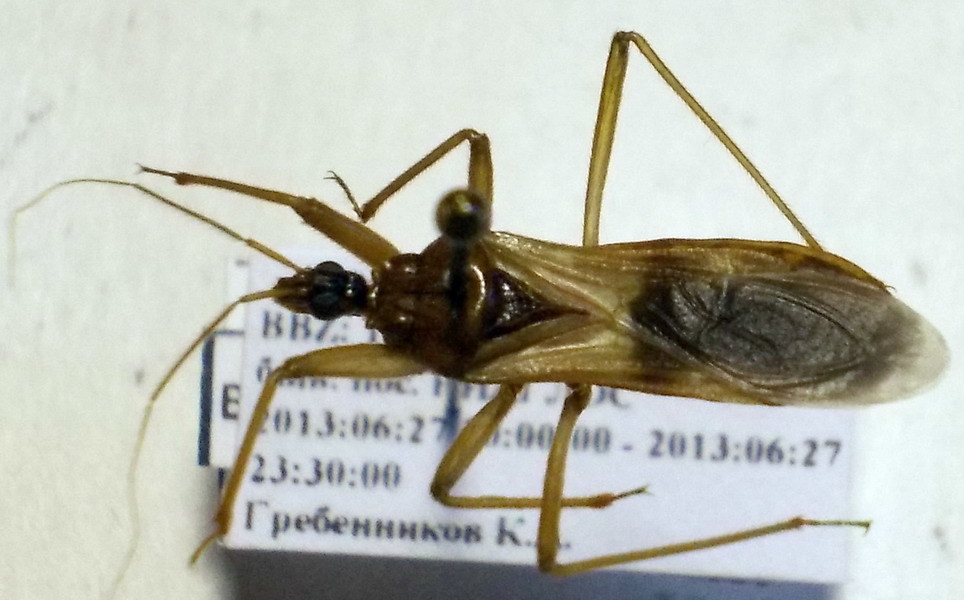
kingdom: Animalia
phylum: Arthropoda
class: Insecta
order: Hemiptera
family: Reduviidae
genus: Reduvius
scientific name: Reduvius testaceus
